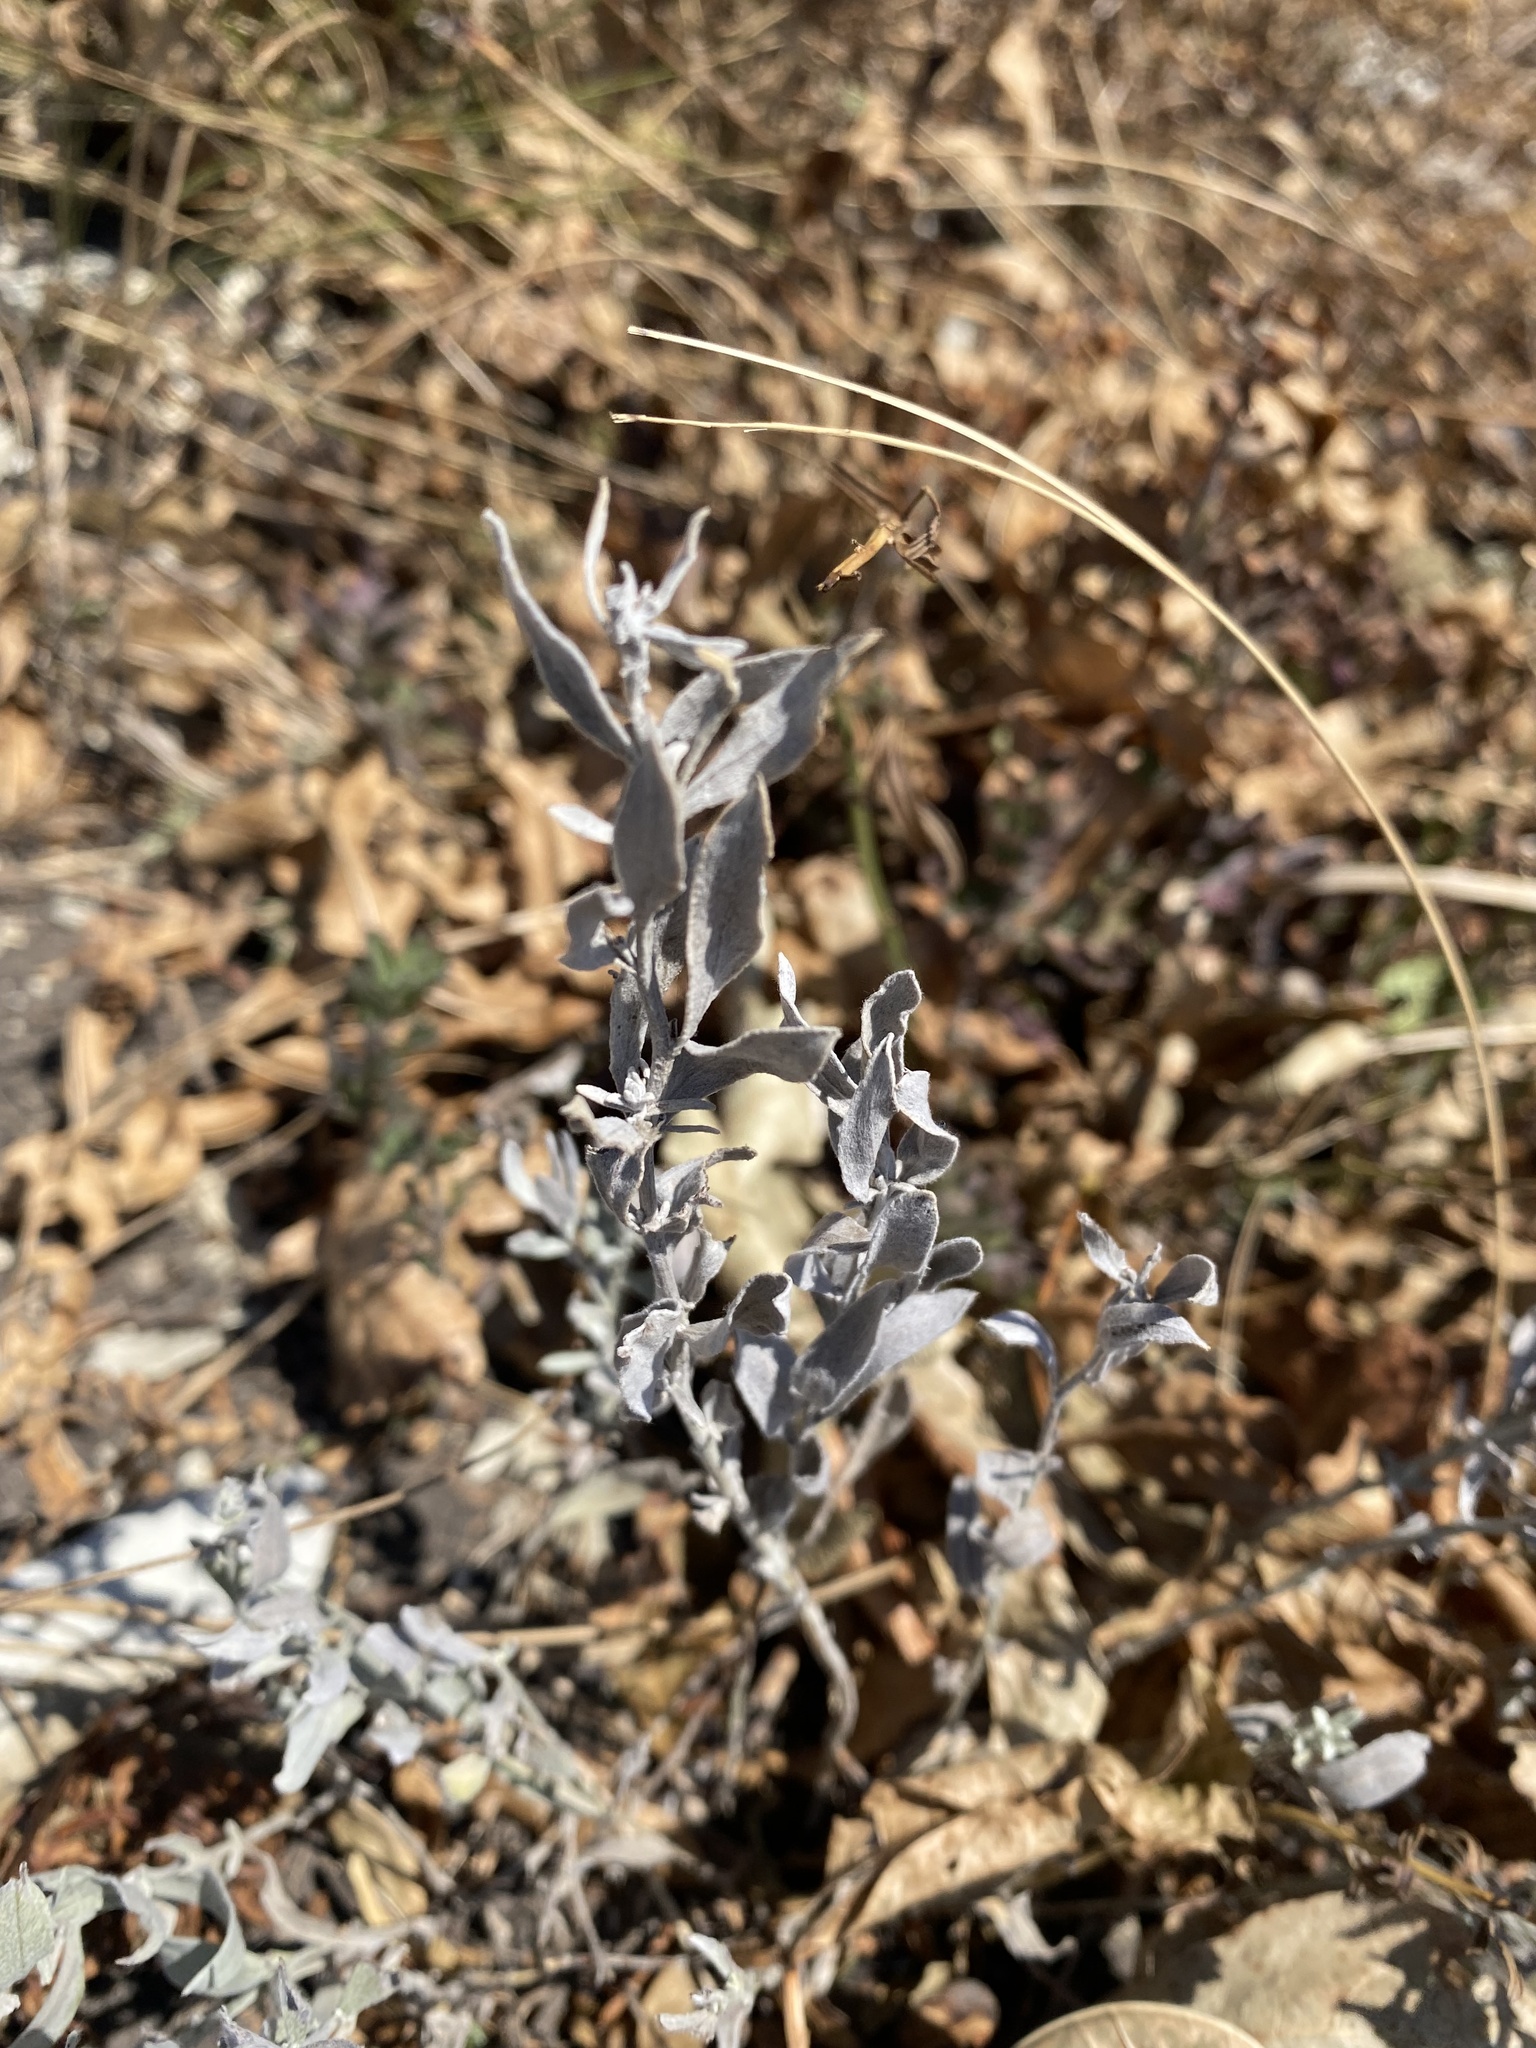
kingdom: Plantae
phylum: Tracheophyta
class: Magnoliopsida
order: Asterales
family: Asteraceae
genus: Galatella
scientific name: Galatella villosa
